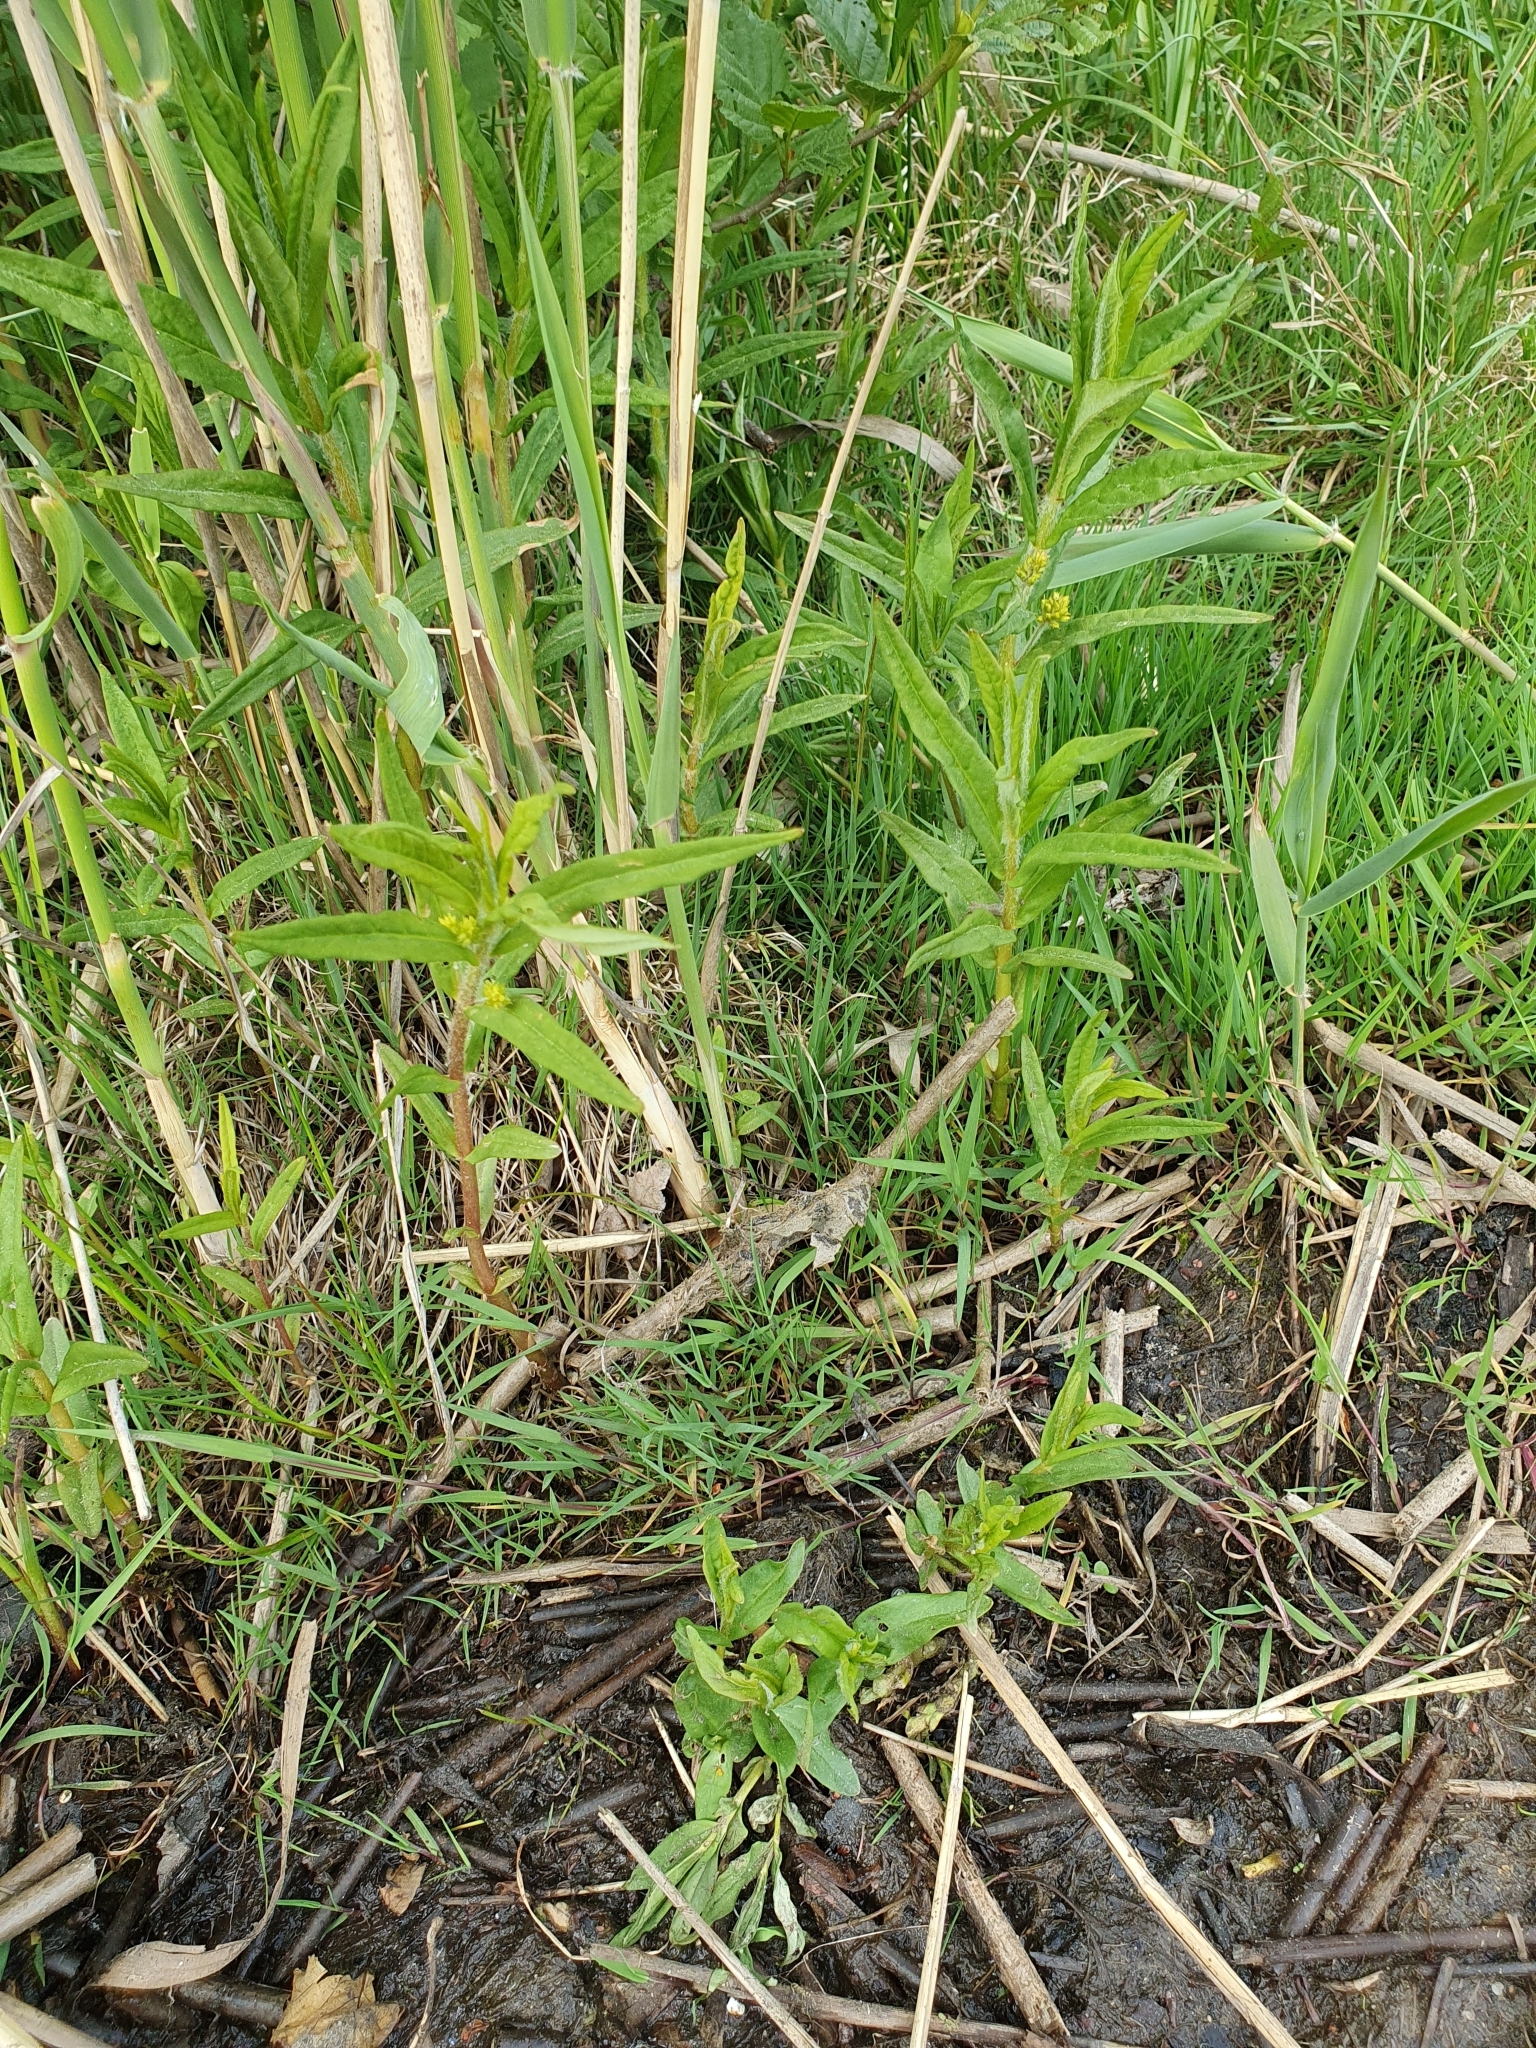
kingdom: Plantae
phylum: Tracheophyta
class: Magnoliopsida
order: Ericales
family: Primulaceae
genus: Lysimachia
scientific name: Lysimachia thyrsiflora
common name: Tufted loosestrife
